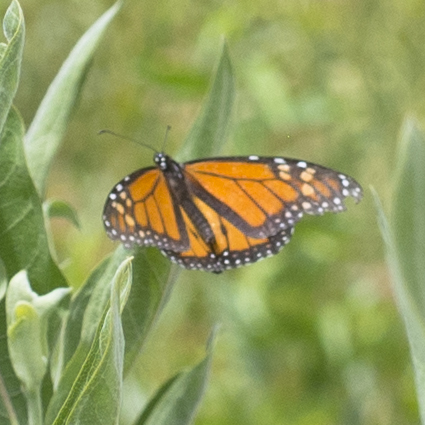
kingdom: Animalia
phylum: Arthropoda
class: Insecta
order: Lepidoptera
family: Nymphalidae
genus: Danaus
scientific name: Danaus plexippus
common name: Monarch
